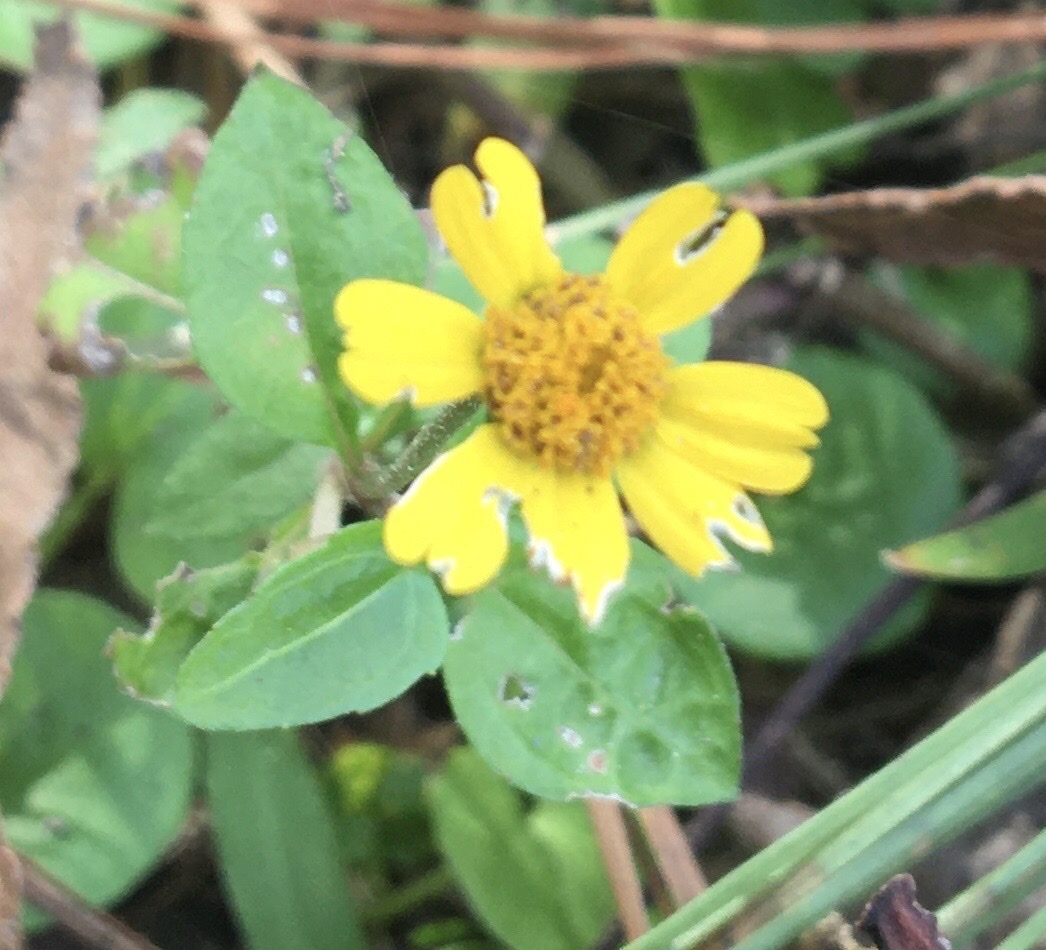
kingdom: Plantae
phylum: Tracheophyta
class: Magnoliopsida
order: Asterales
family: Asteraceae
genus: Acmella
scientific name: Acmella repens
